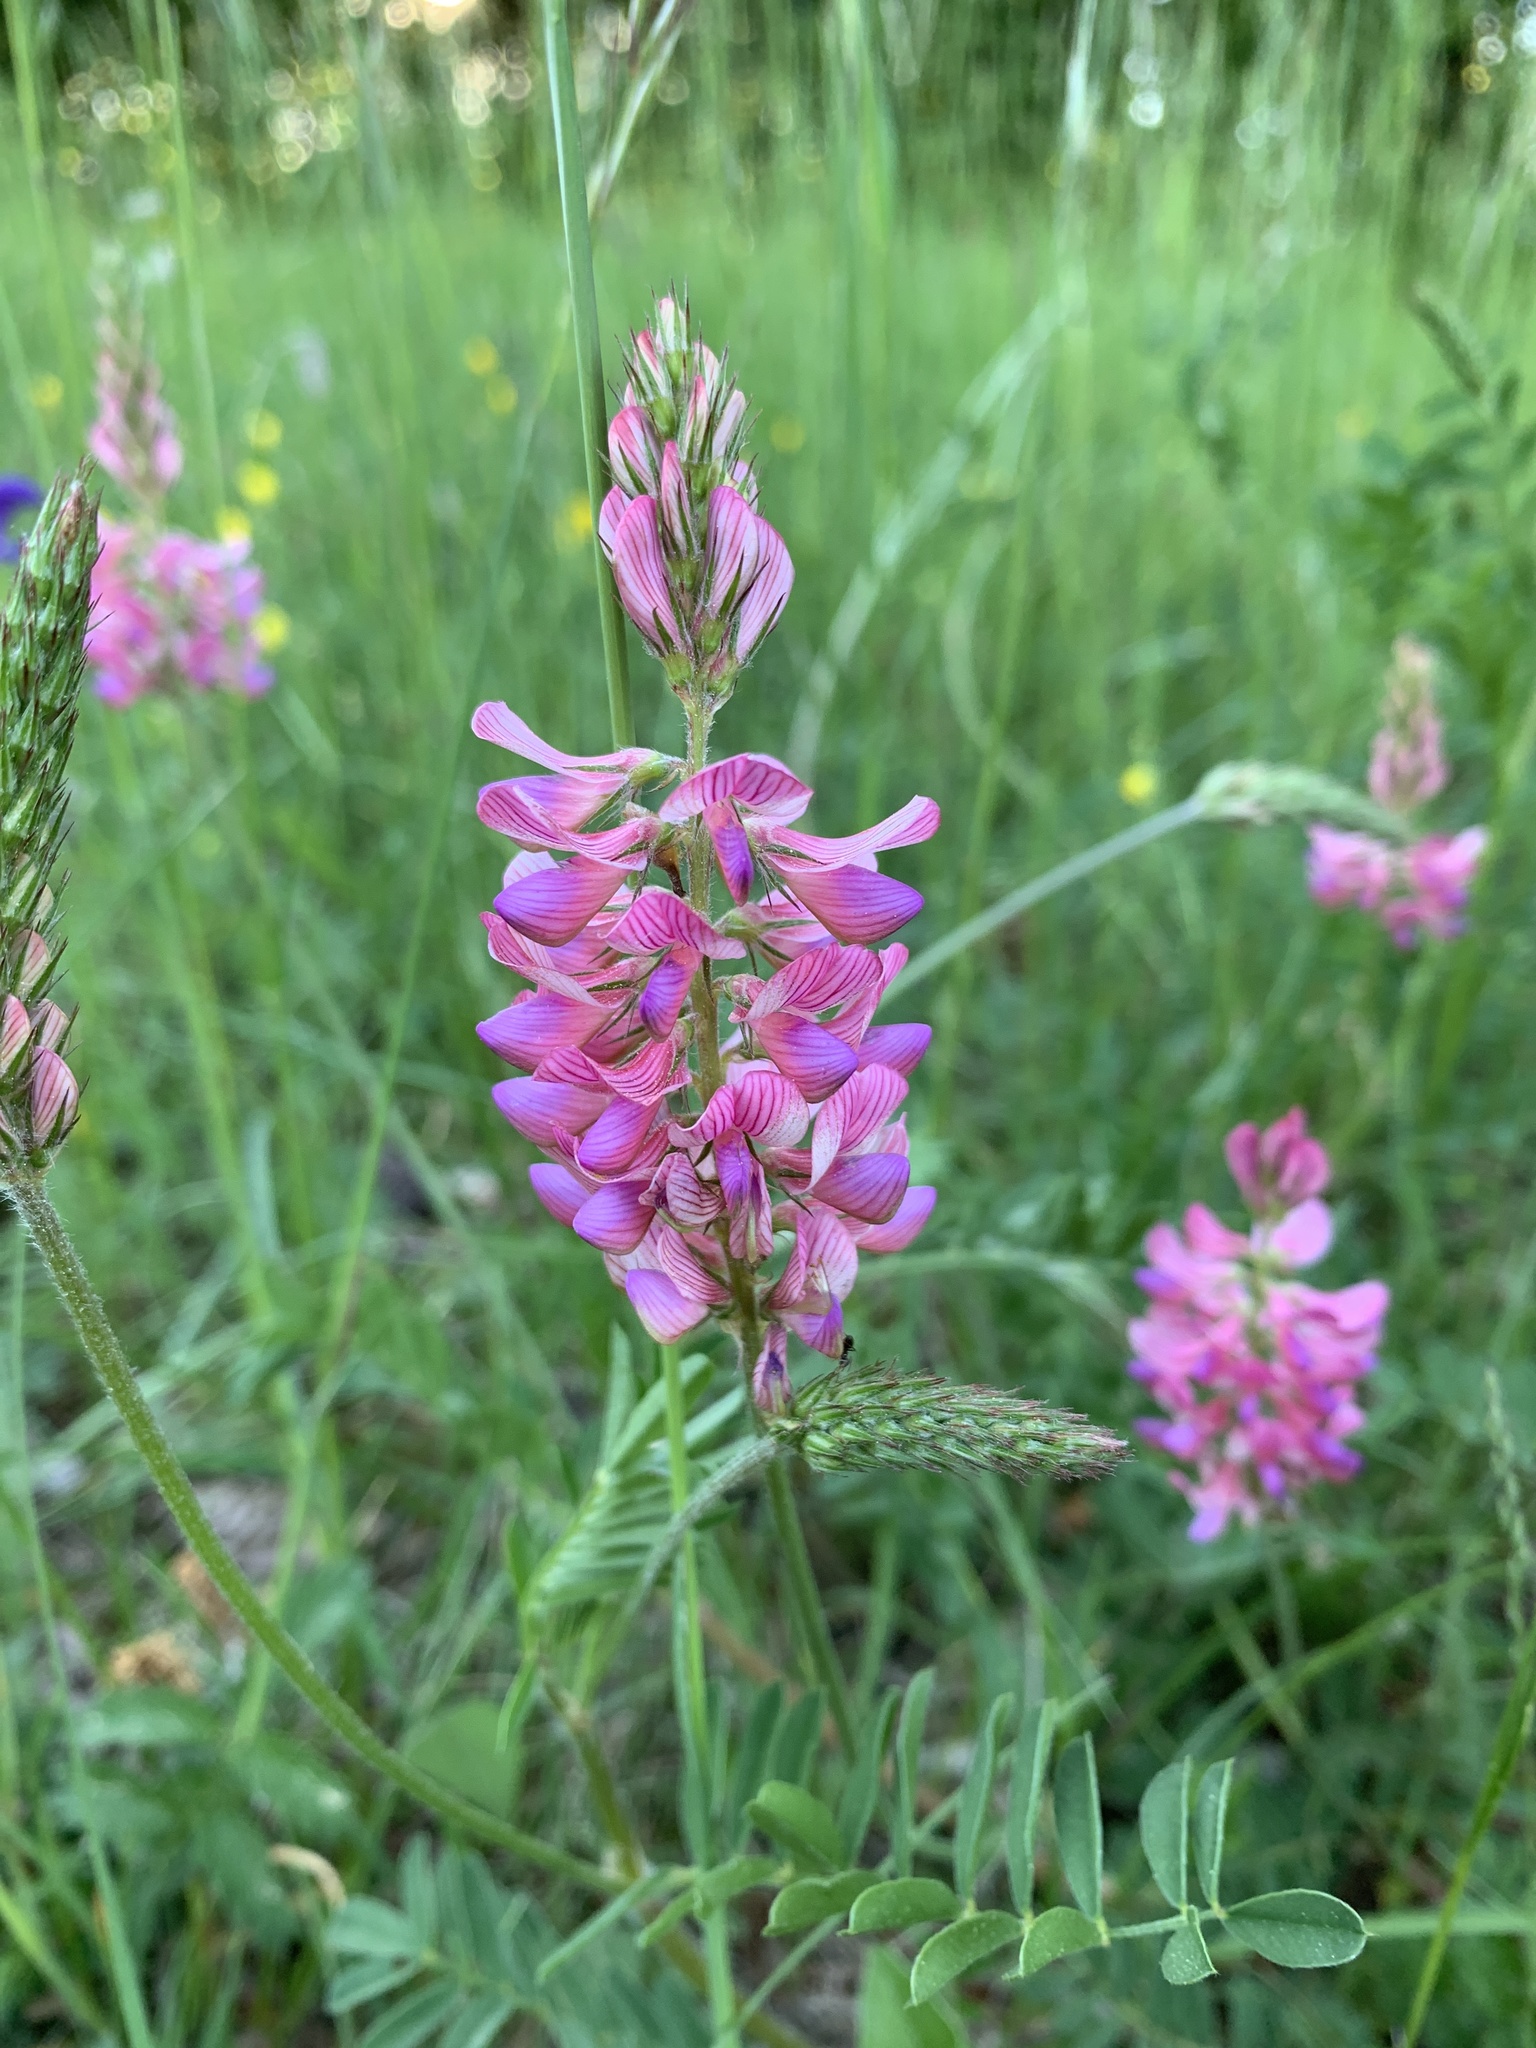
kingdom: Plantae
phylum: Tracheophyta
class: Magnoliopsida
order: Fabales
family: Fabaceae
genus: Onobrychis
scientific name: Onobrychis viciifolia
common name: Sainfoin
